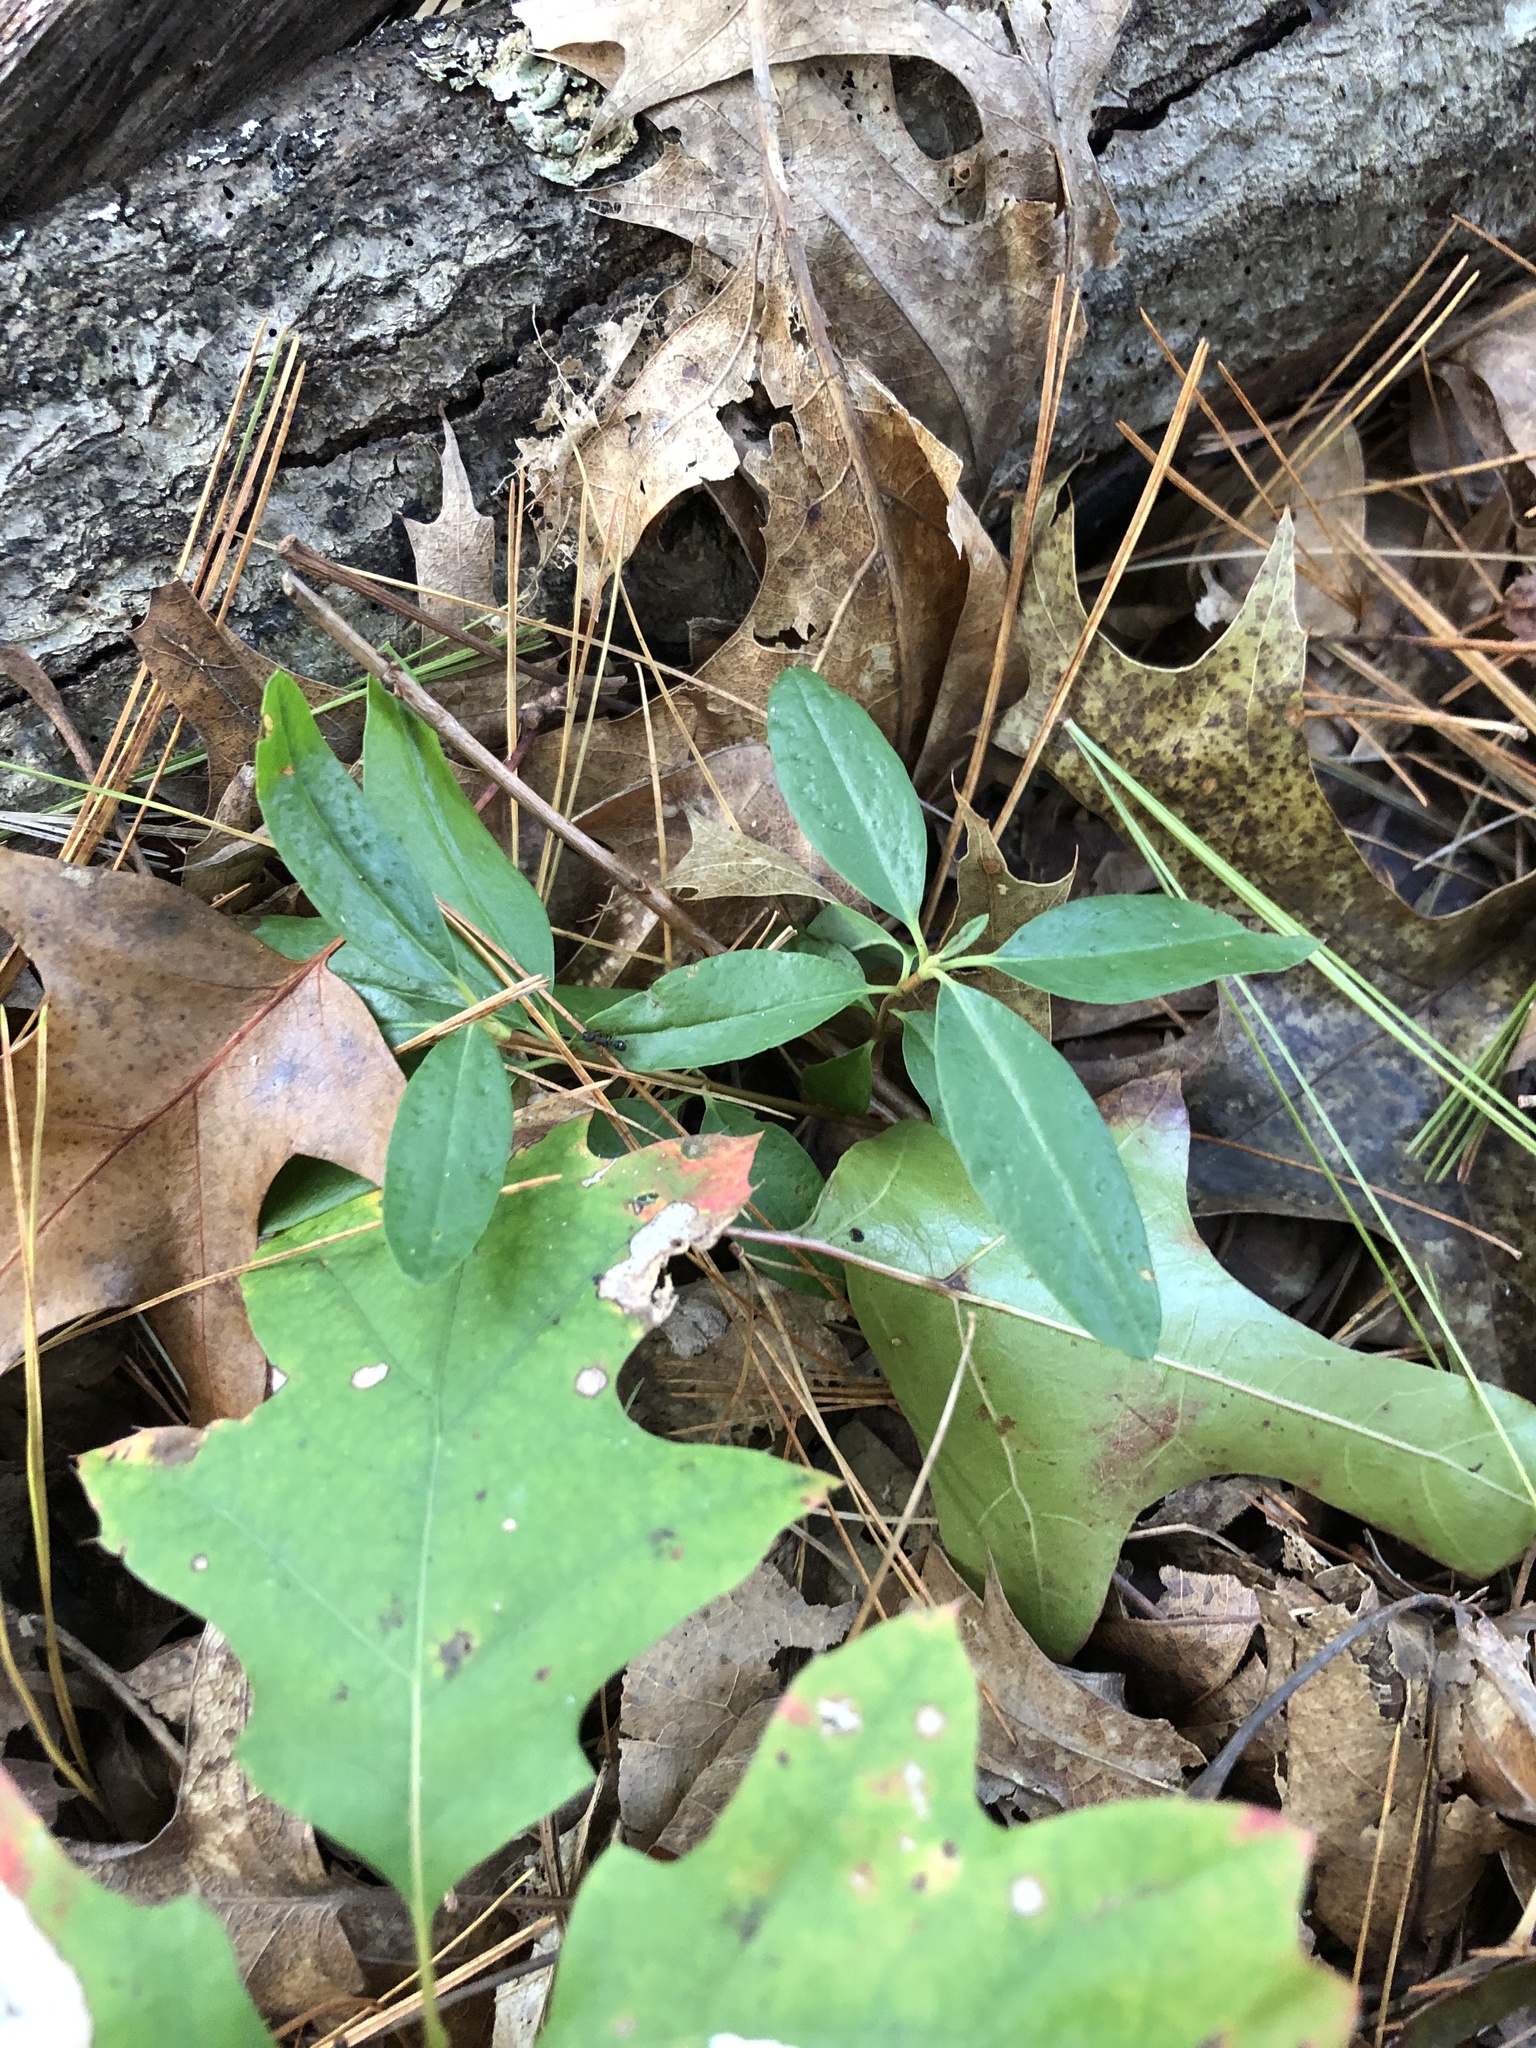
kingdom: Plantae
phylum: Tracheophyta
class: Magnoliopsida
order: Ericales
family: Ericaceae
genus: Kalmia
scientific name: Kalmia angustifolia
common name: Sheep-laurel
